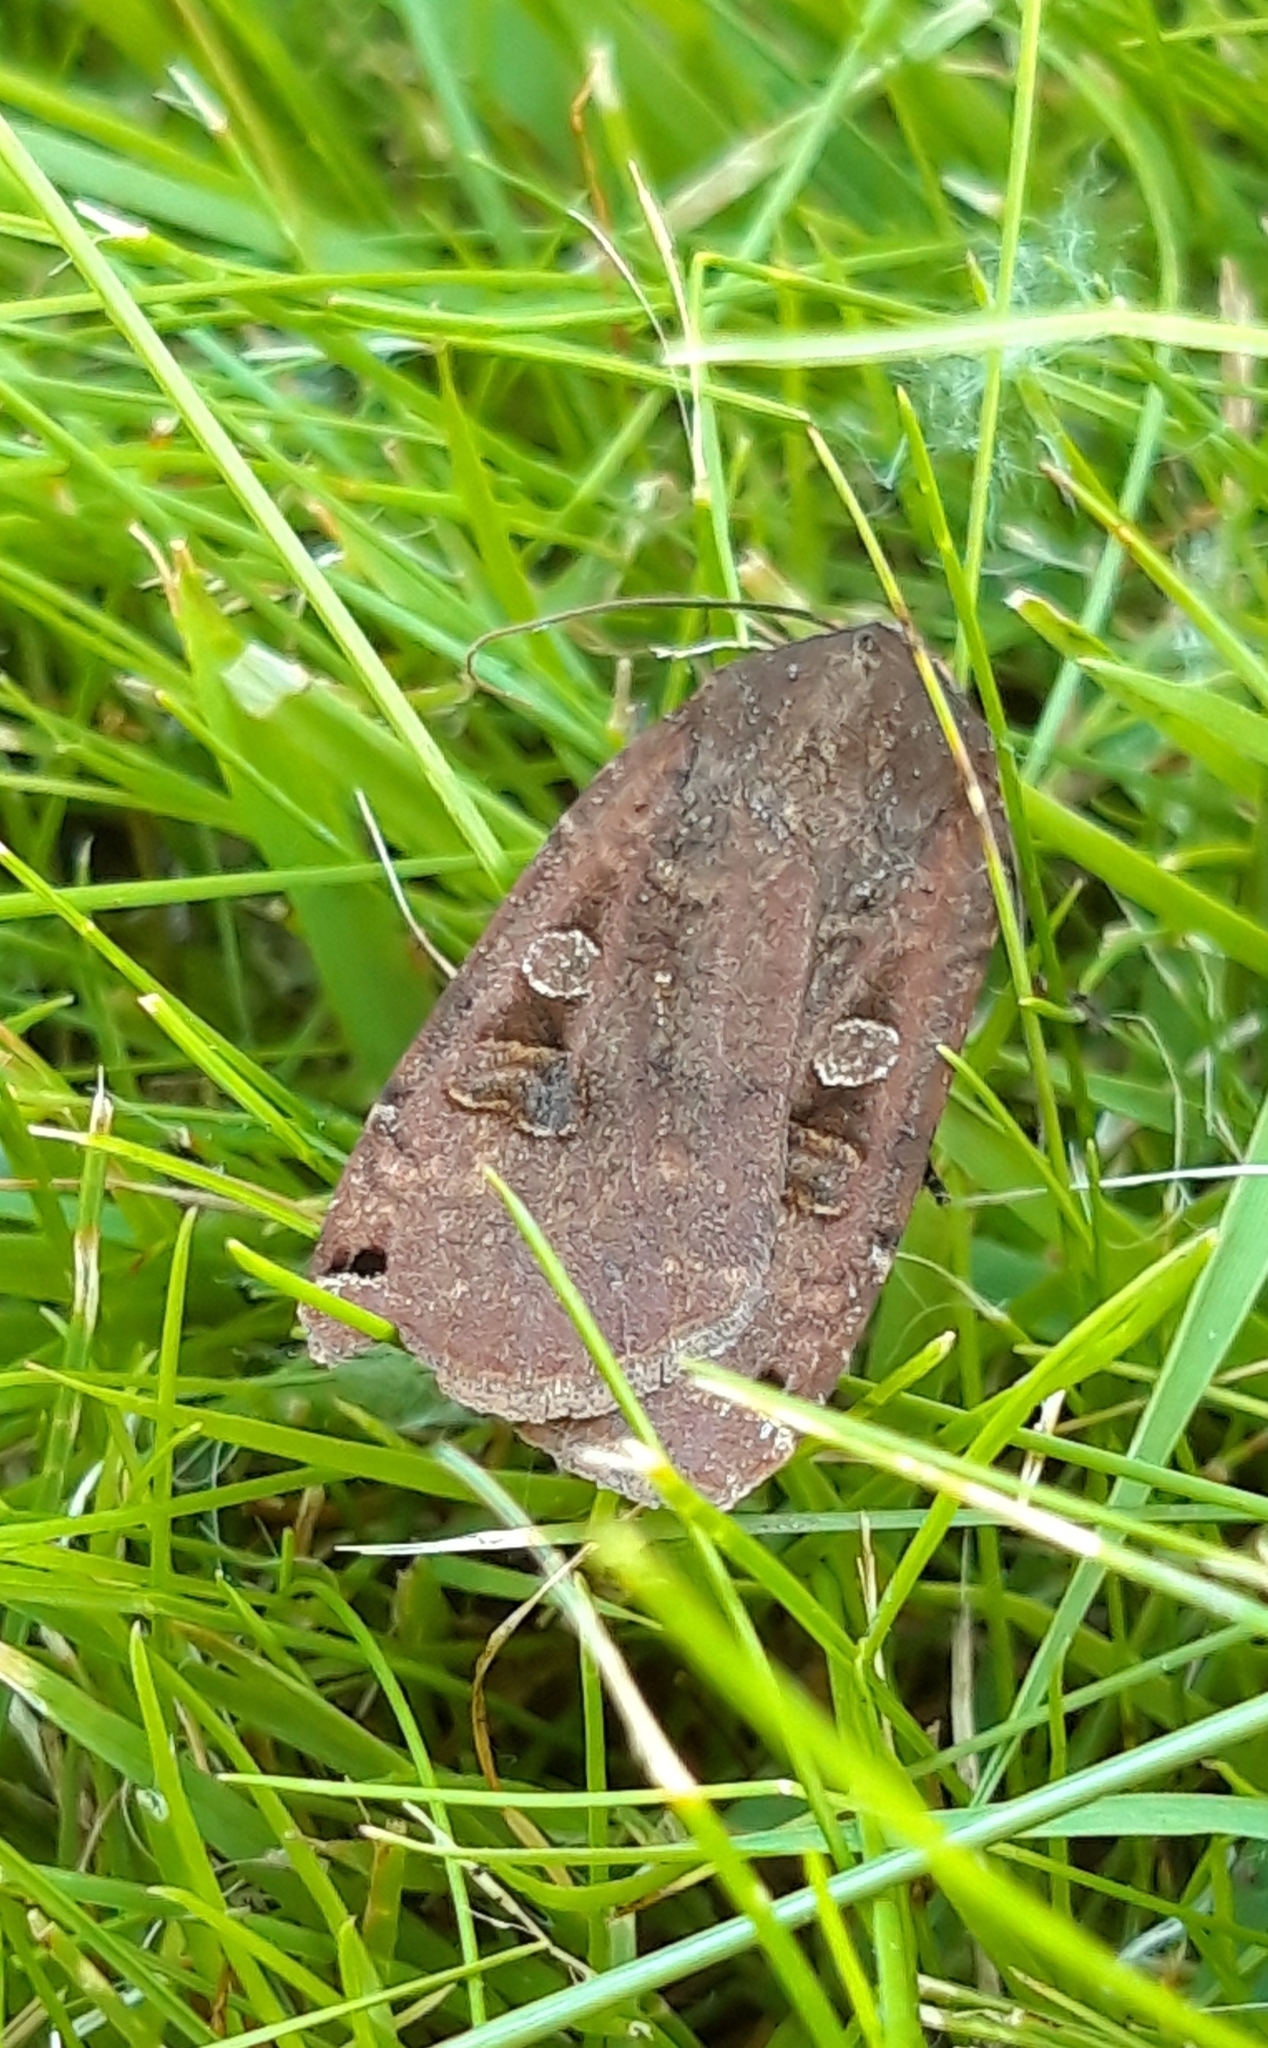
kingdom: Animalia
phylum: Arthropoda
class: Insecta
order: Lepidoptera
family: Noctuidae
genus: Noctua
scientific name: Noctua pronuba
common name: Large yellow underwing
